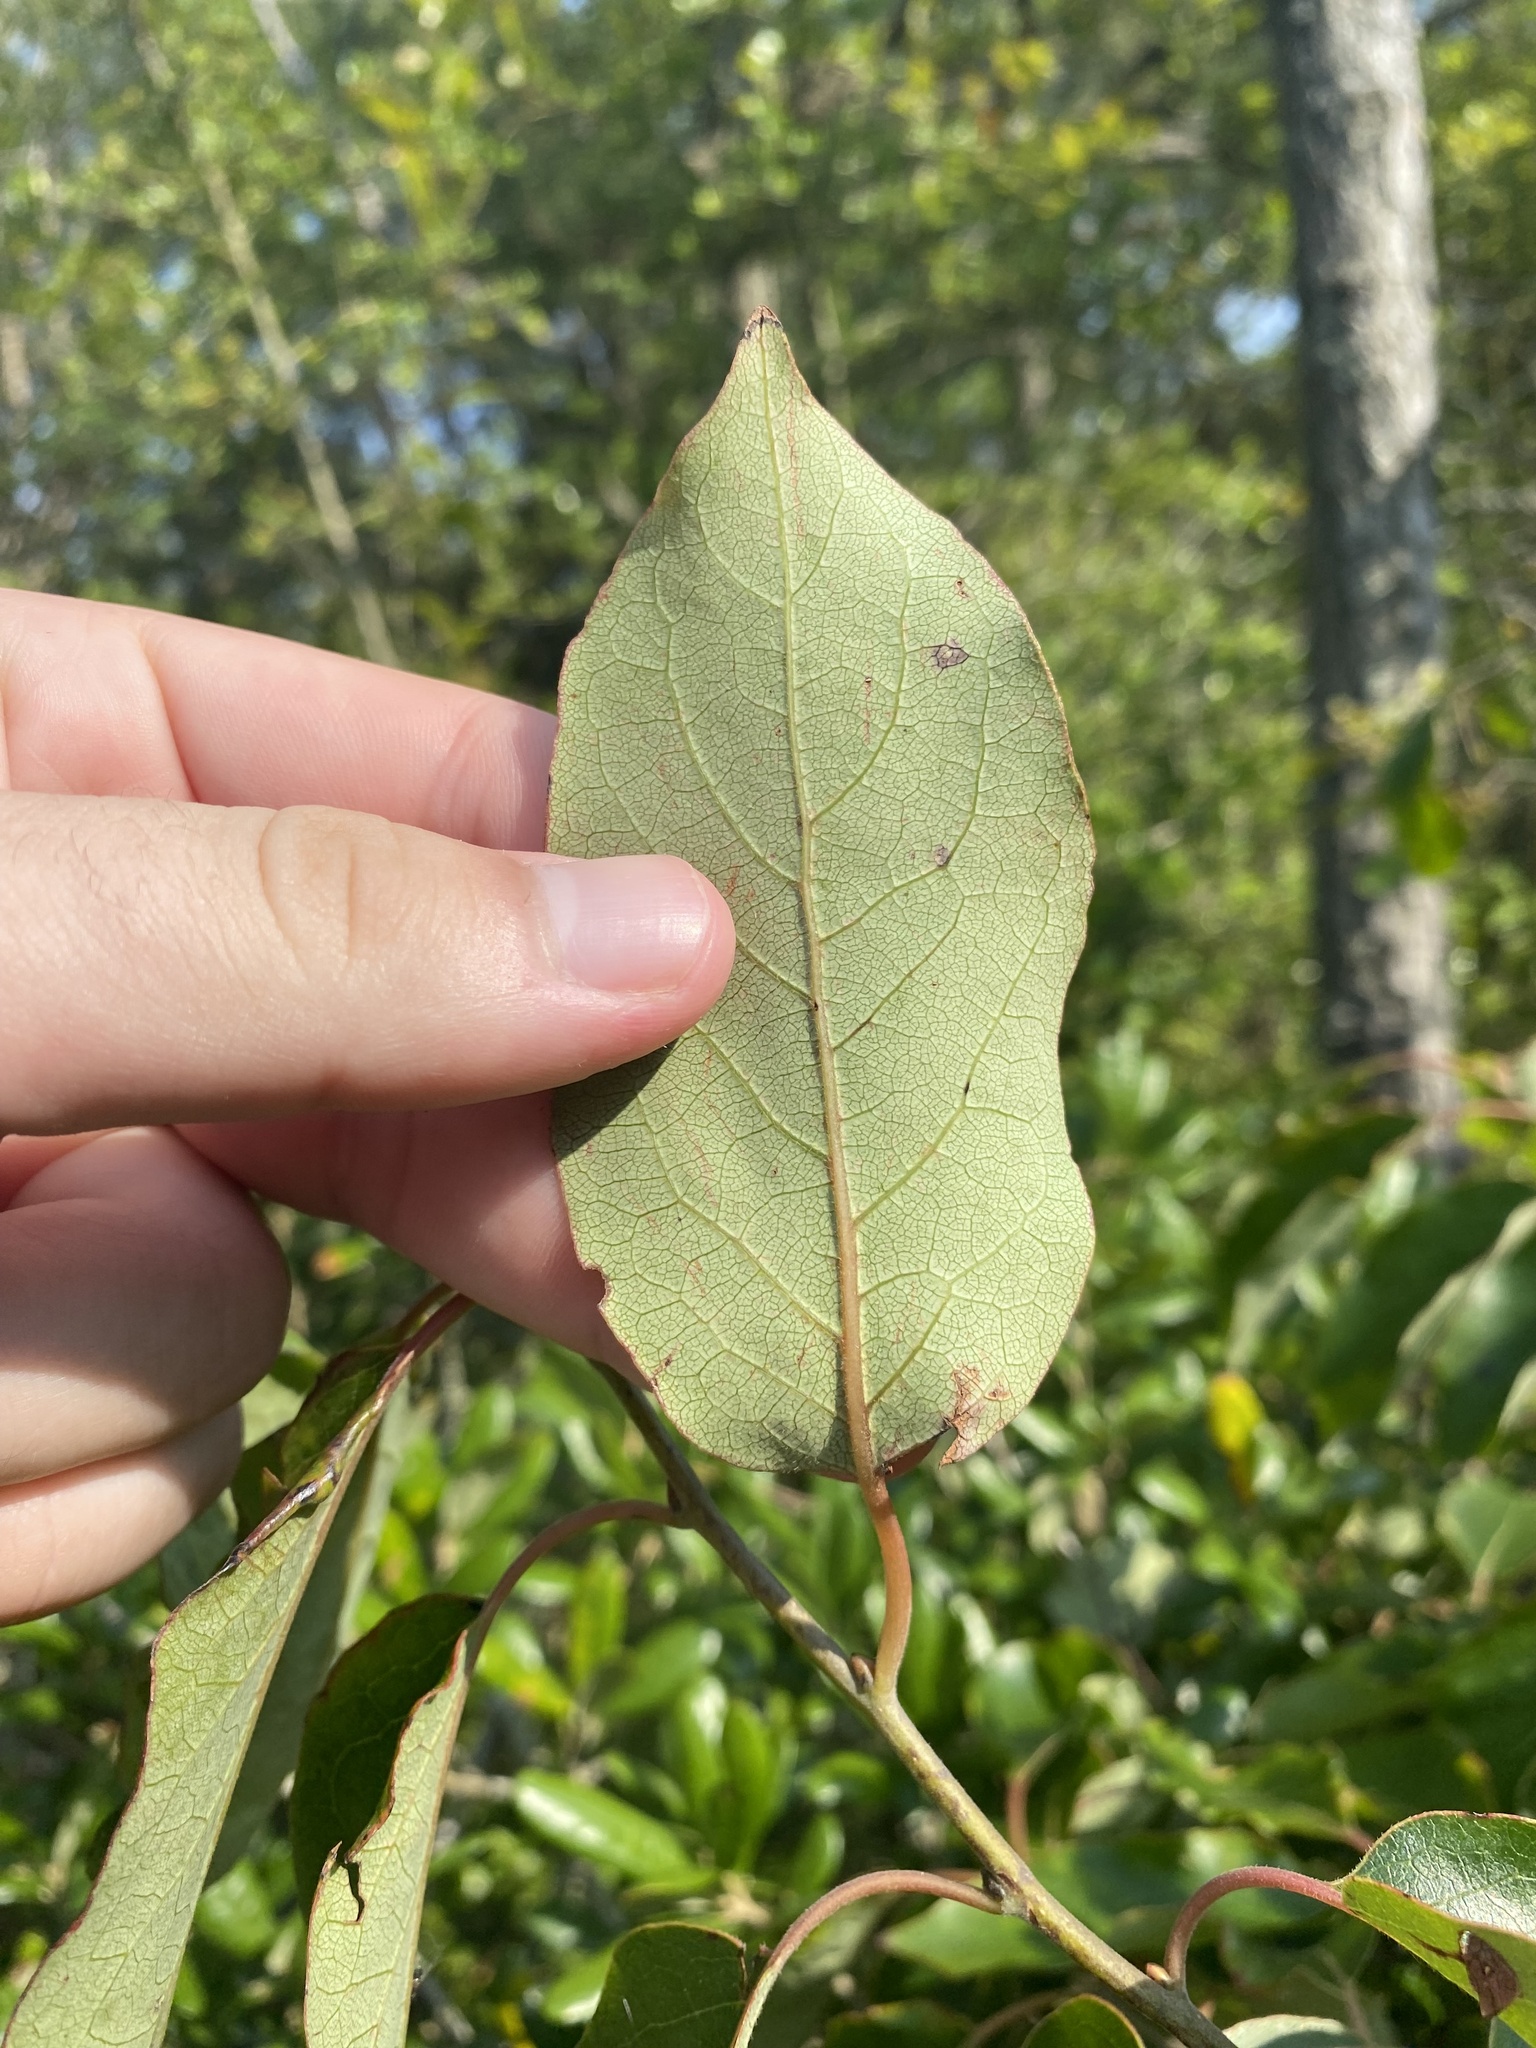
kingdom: Plantae
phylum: Tracheophyta
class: Magnoliopsida
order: Ericales
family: Ebenaceae
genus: Diospyros
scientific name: Diospyros virginiana
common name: Persimmon
